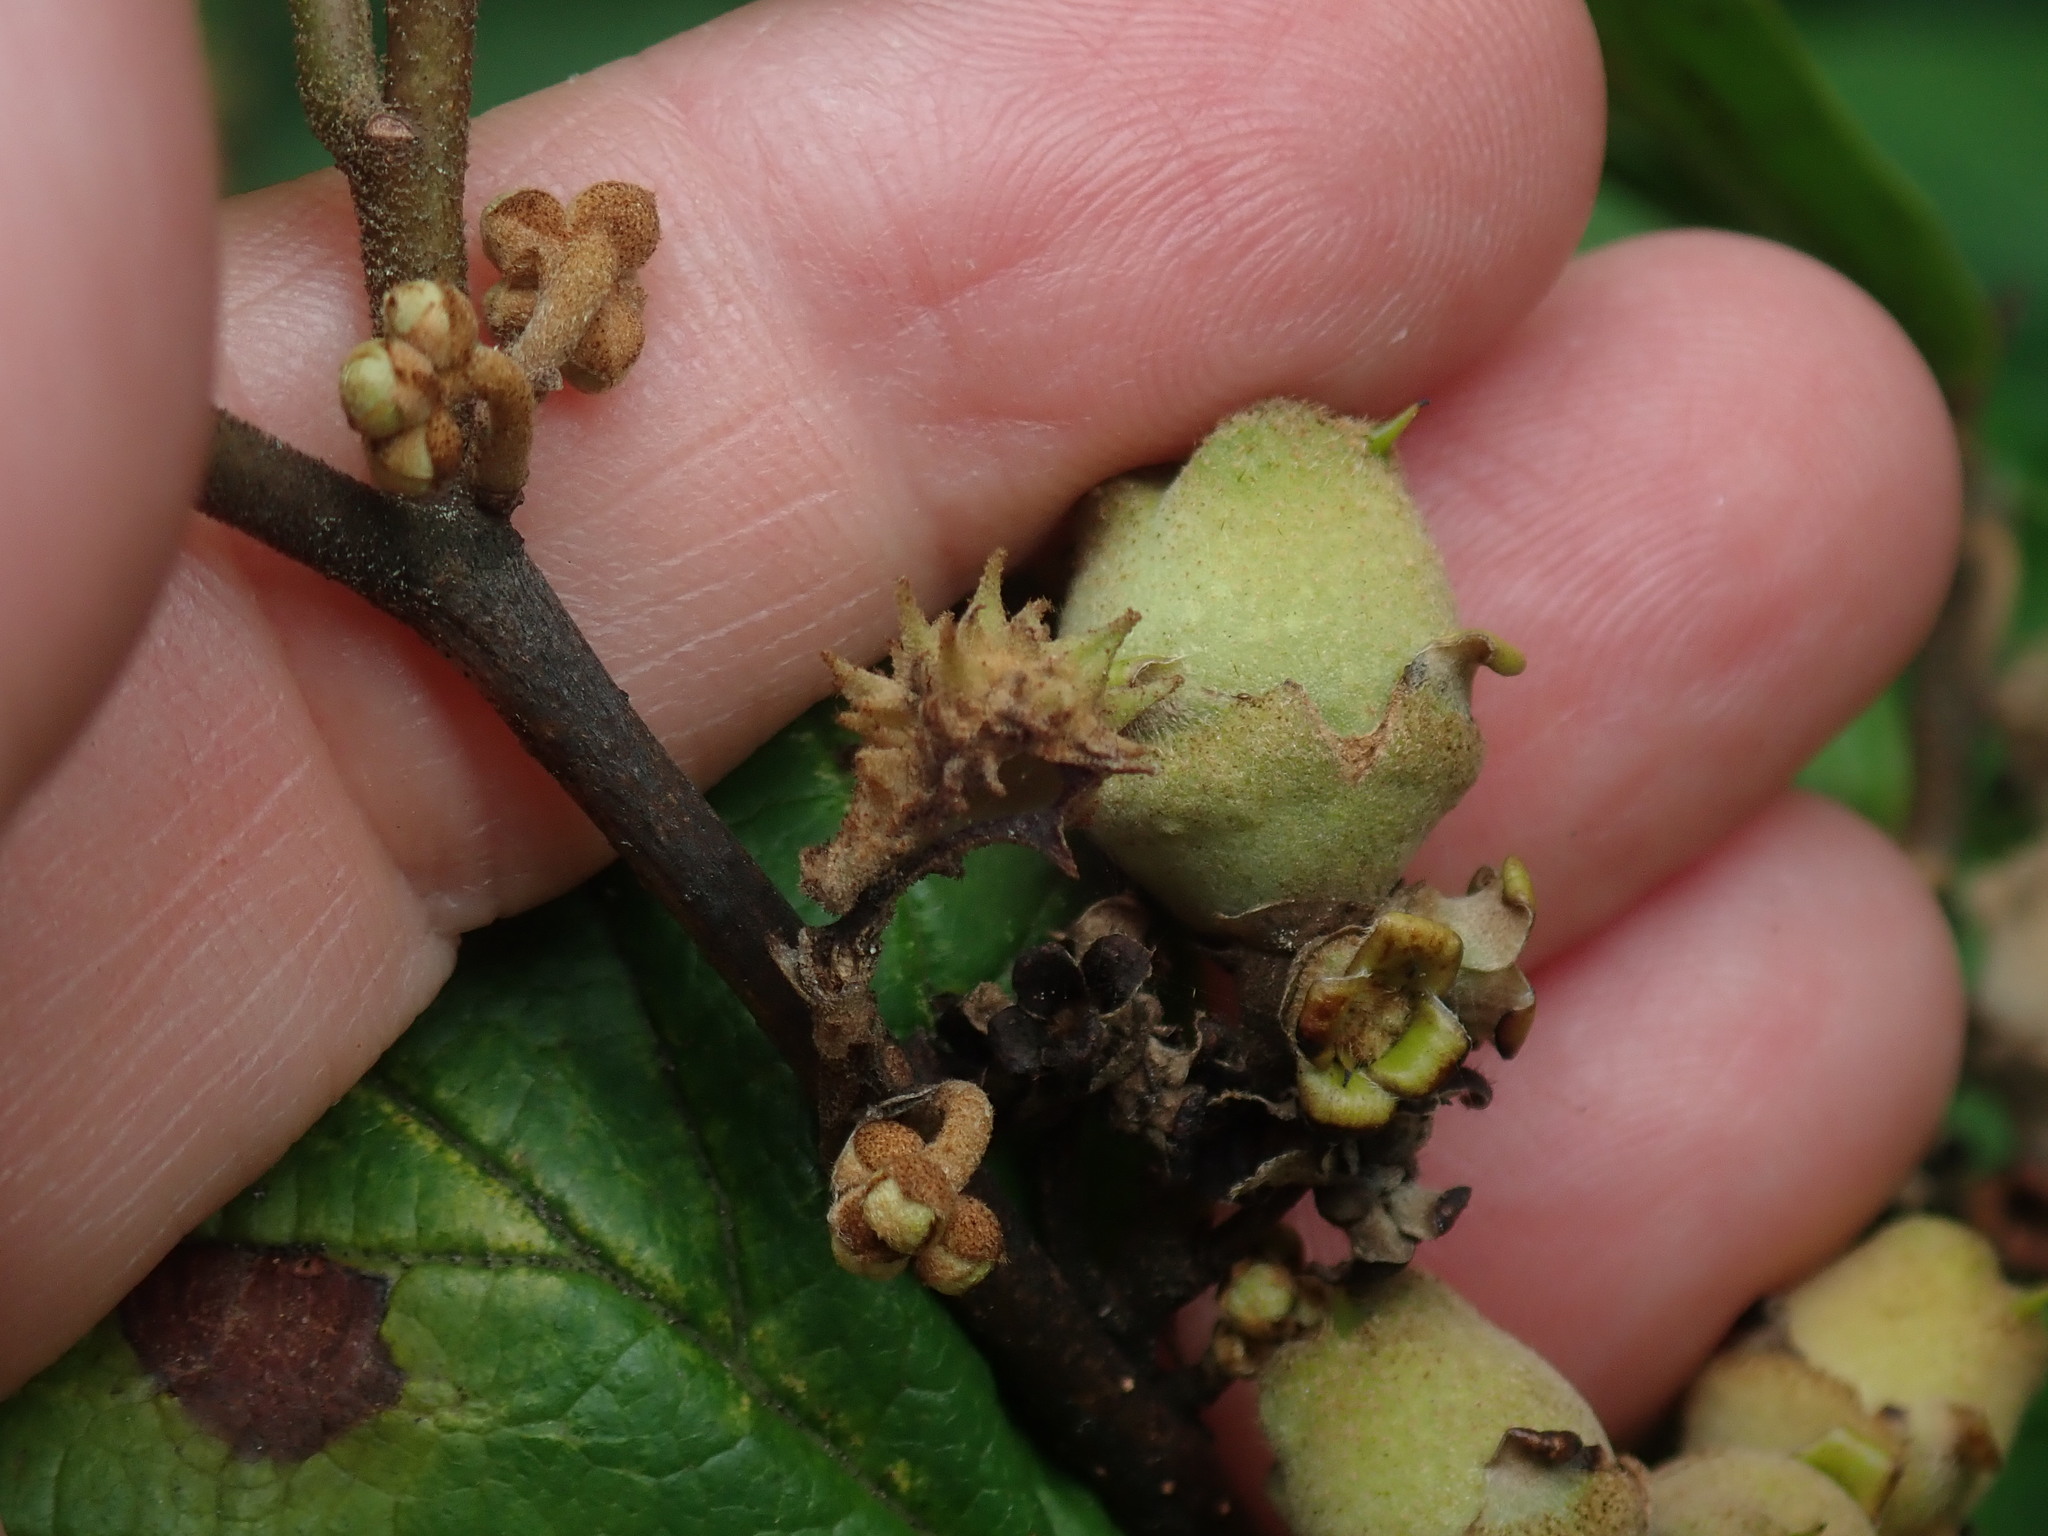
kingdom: Animalia
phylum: Arthropoda
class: Insecta
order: Hemiptera
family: Aphididae
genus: Hamamelistes
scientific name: Hamamelistes spinosus
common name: Witch hazel gall aphid
